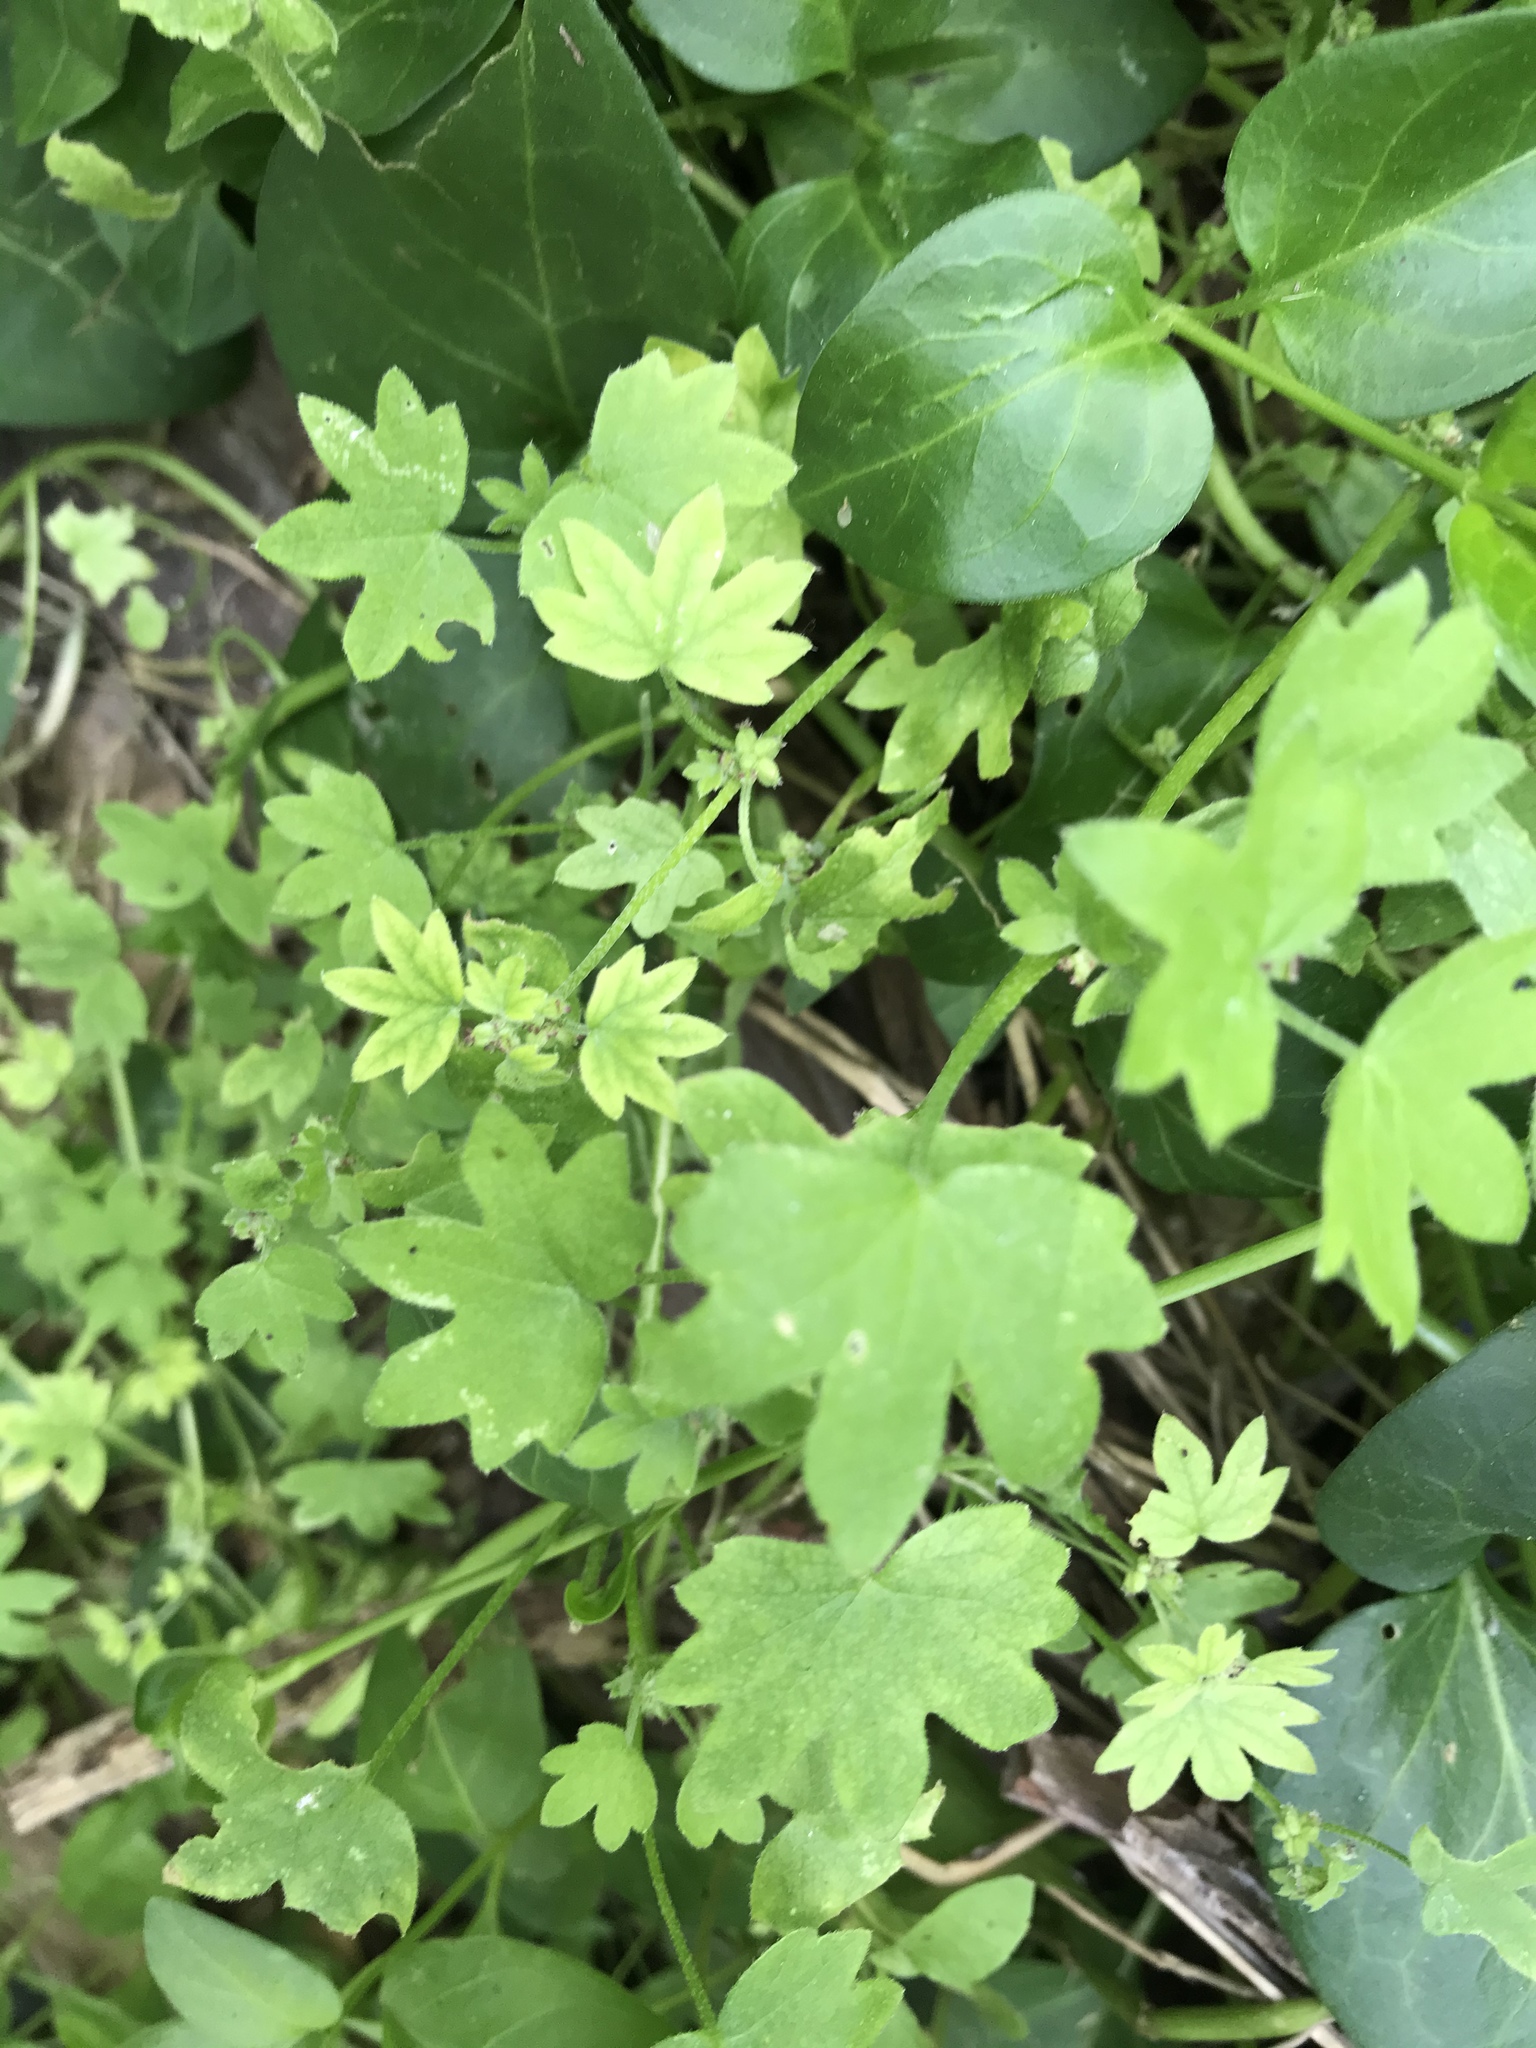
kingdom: Plantae
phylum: Tracheophyta
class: Magnoliopsida
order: Apiales
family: Apiaceae
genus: Bowlesia
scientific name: Bowlesia incana
